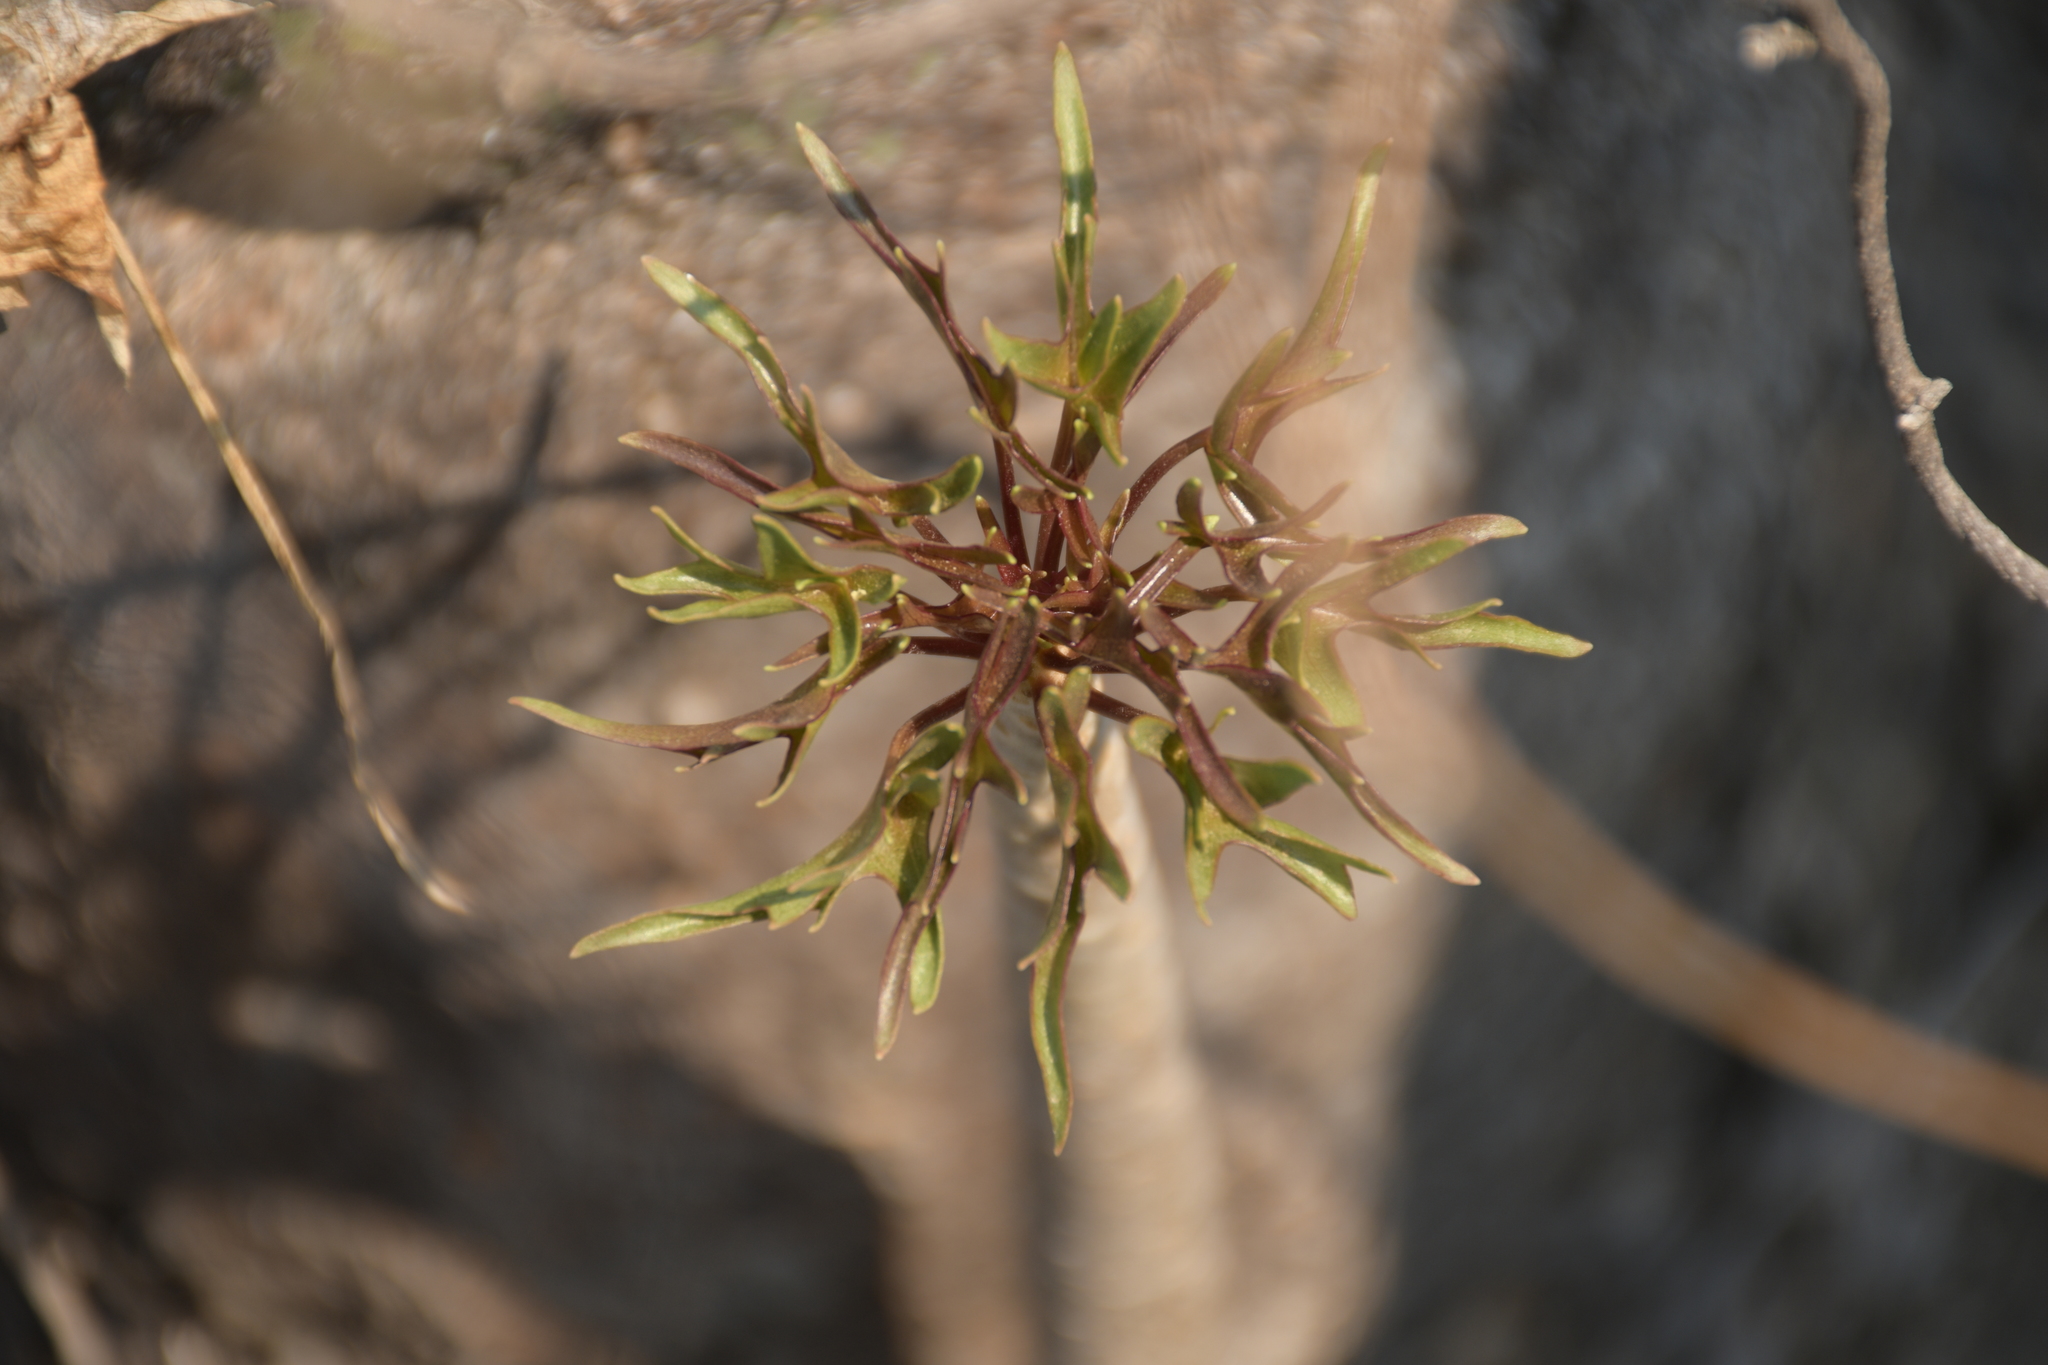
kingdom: Plantae
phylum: Tracheophyta
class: Magnoliopsida
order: Asterales
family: Asteraceae
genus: Pittocaulon
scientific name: Pittocaulon praecox
